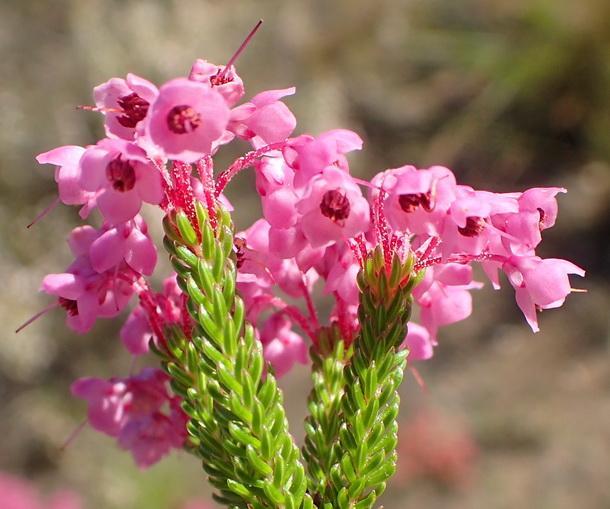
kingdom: Plantae
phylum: Tracheophyta
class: Magnoliopsida
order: Ericales
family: Ericaceae
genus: Erica
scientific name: Erica seriphiifolia
